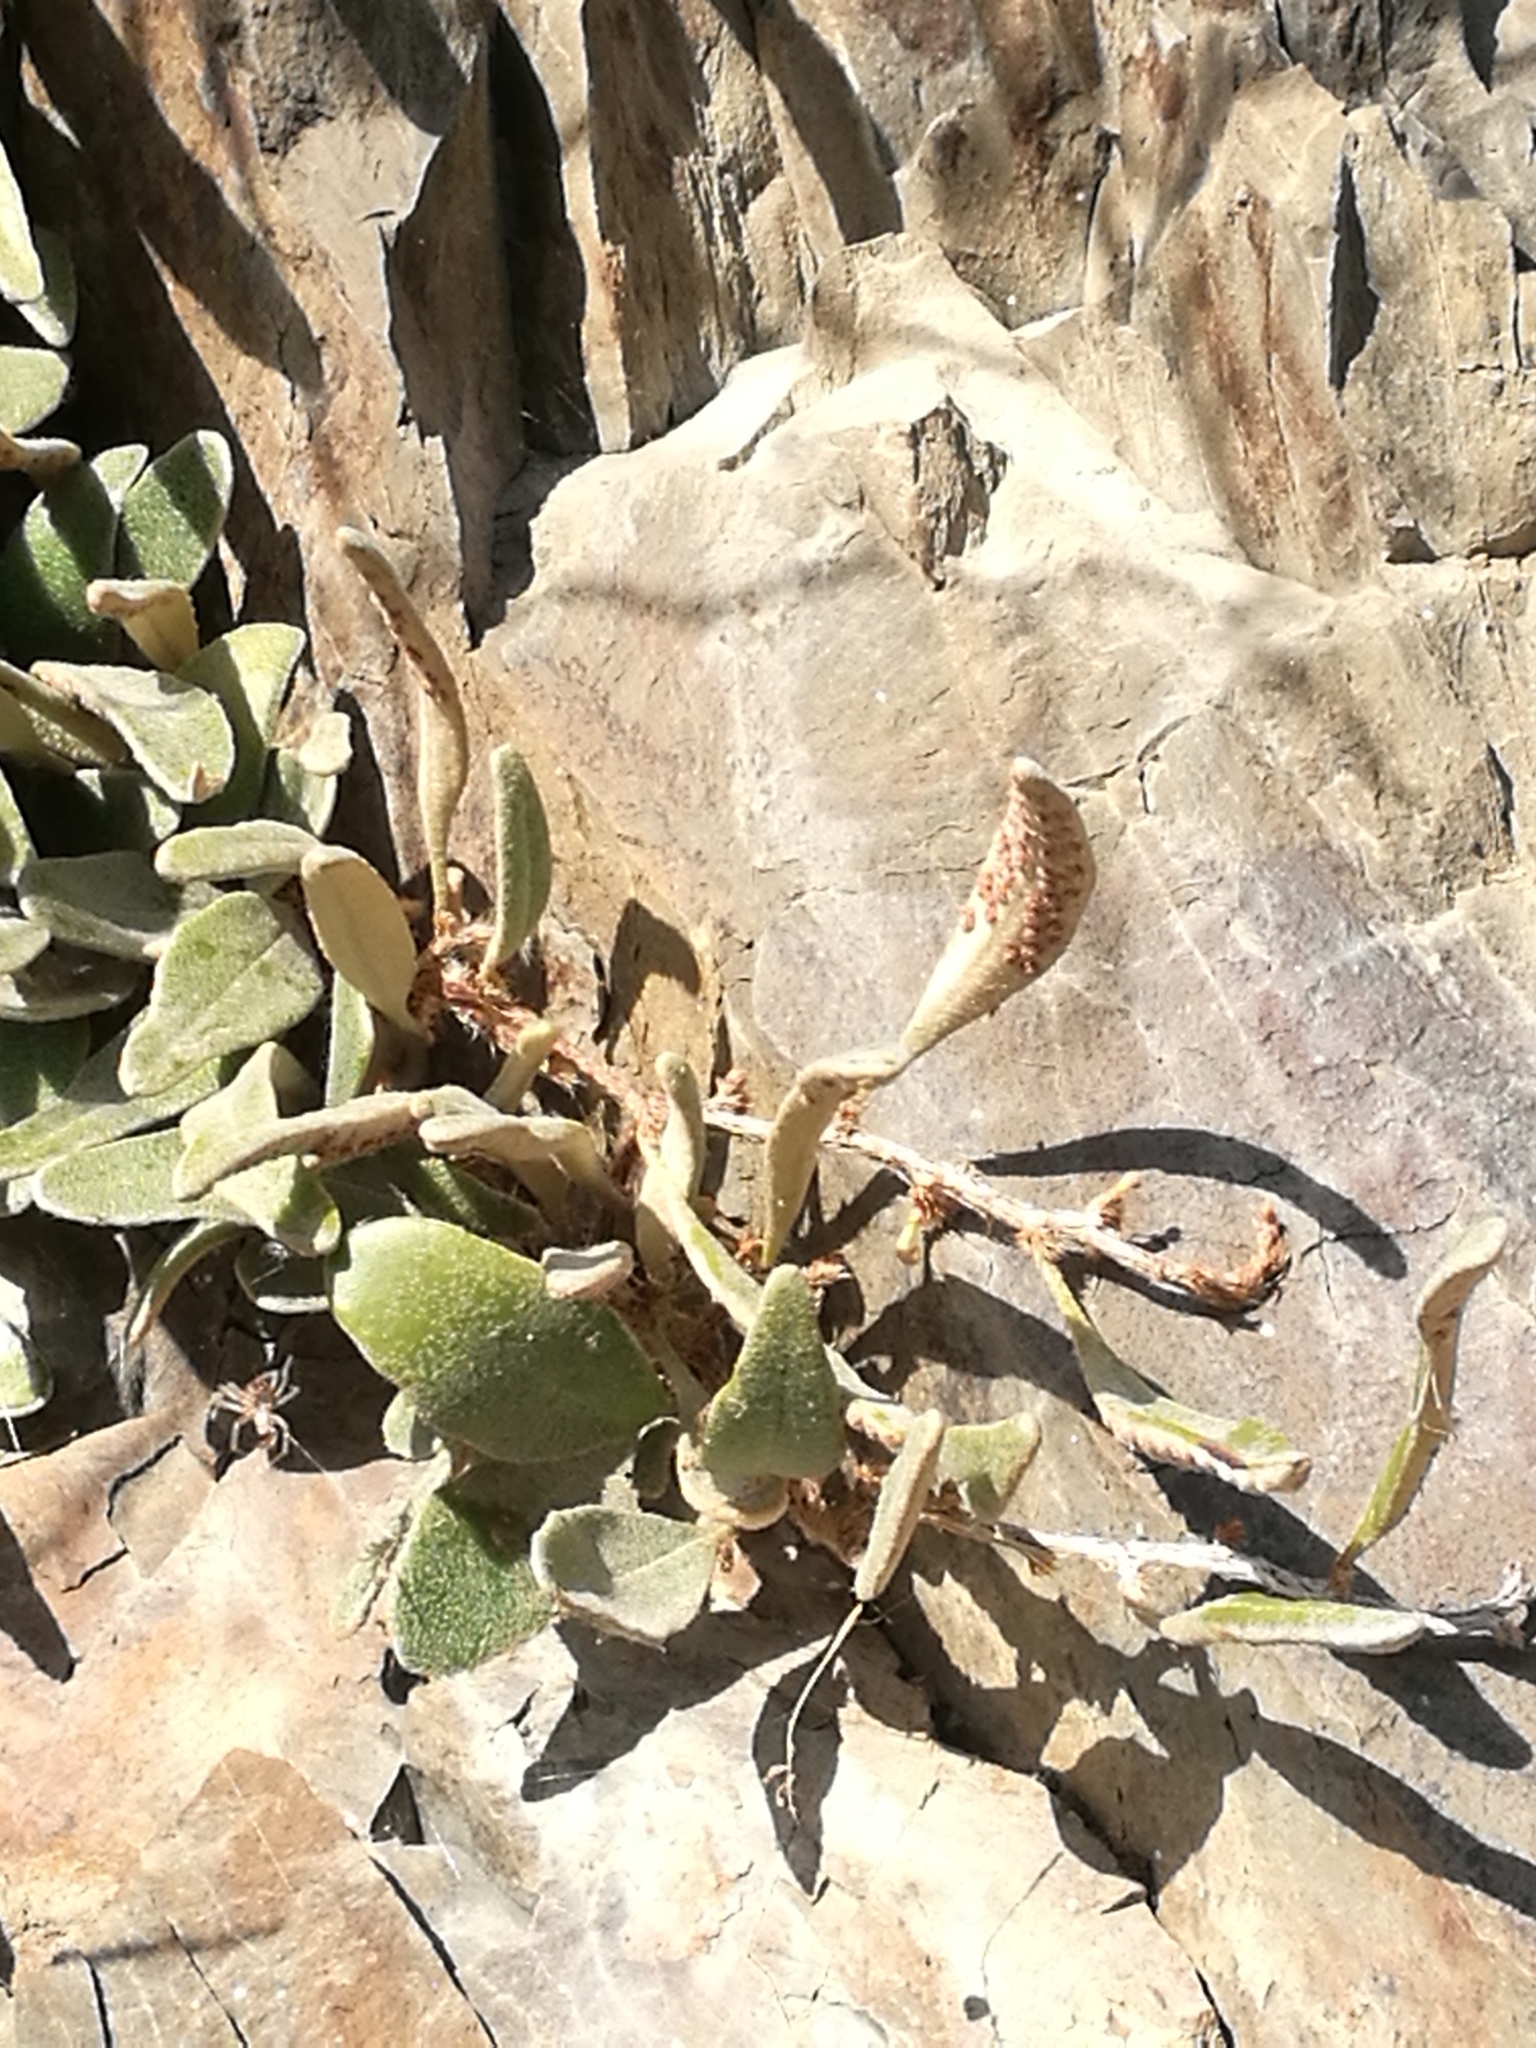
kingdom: Plantae
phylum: Tracheophyta
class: Polypodiopsida
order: Polypodiales
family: Polypodiaceae
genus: Pyrrosia
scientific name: Pyrrosia eleagnifolia
